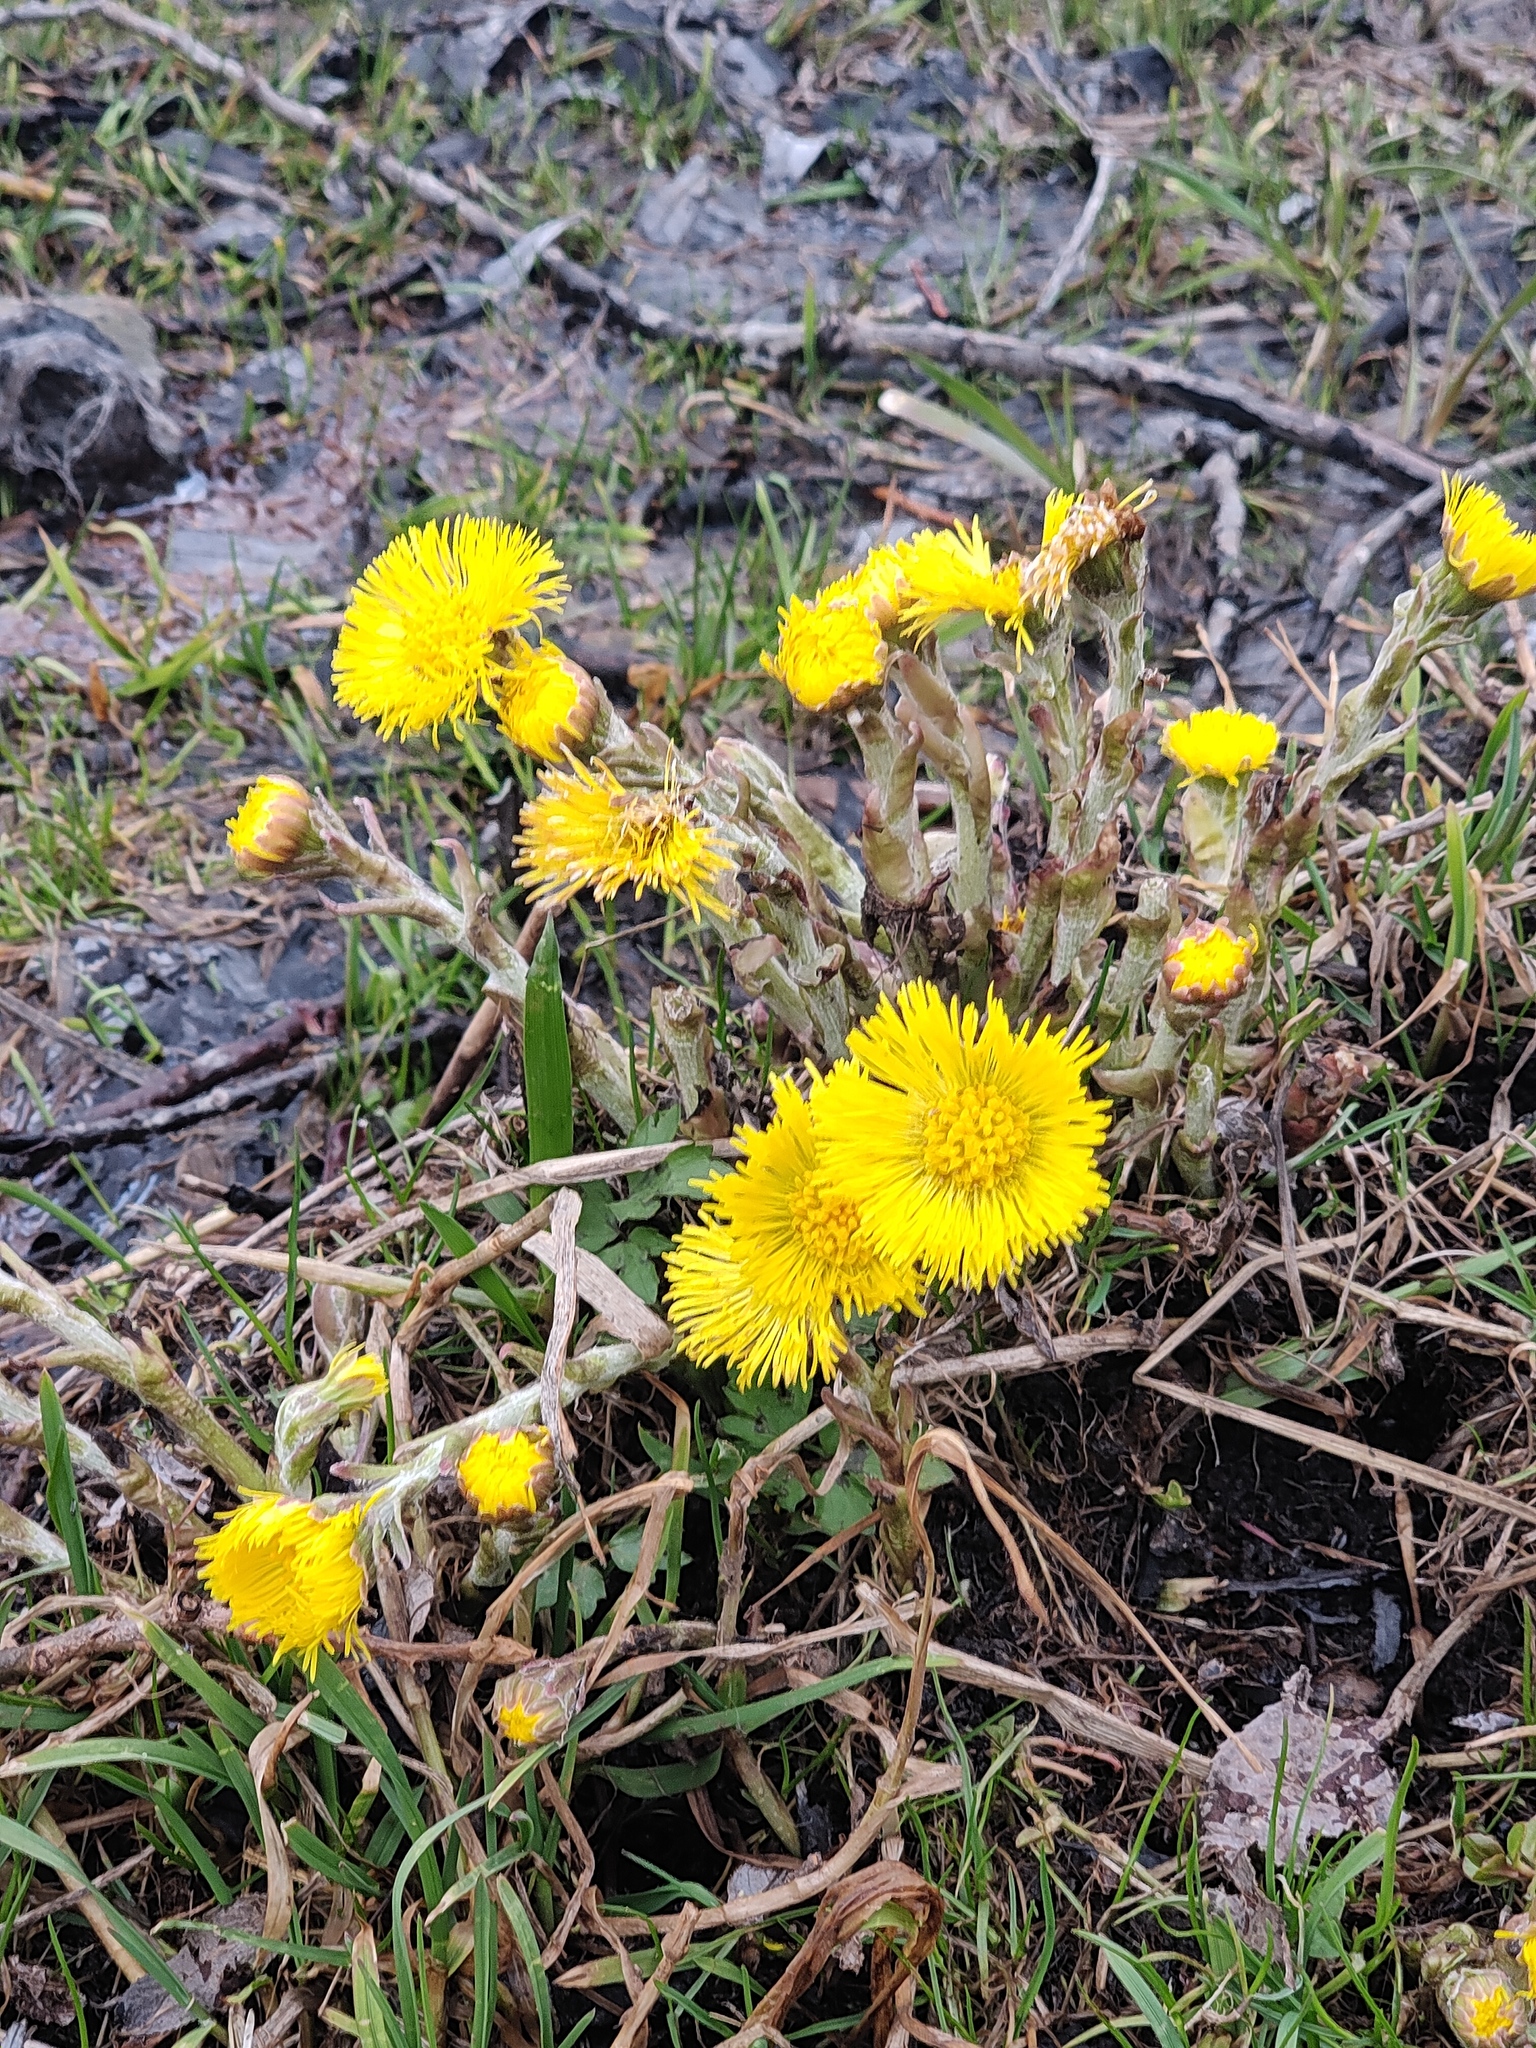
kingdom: Plantae
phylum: Tracheophyta
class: Magnoliopsida
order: Asterales
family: Asteraceae
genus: Tussilago
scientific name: Tussilago farfara
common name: Coltsfoot
